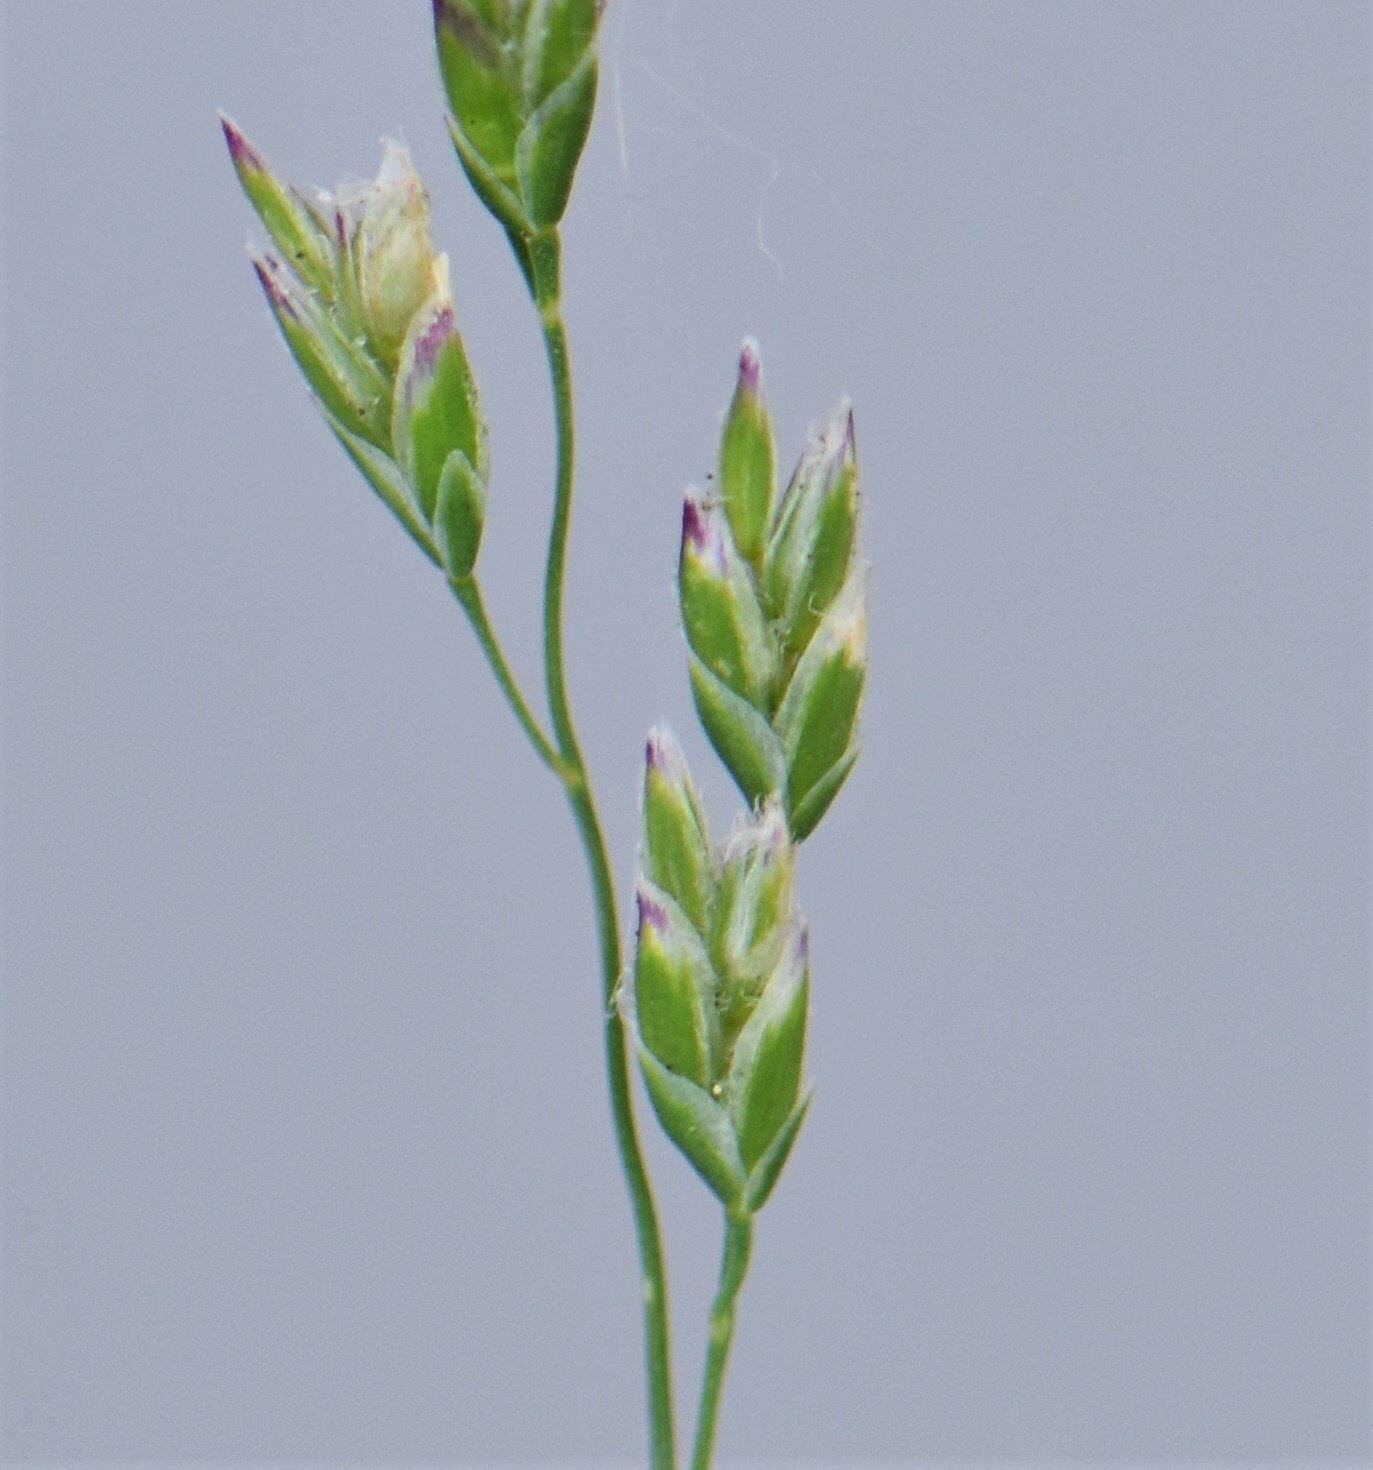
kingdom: Plantae
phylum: Tracheophyta
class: Liliopsida
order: Poales
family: Poaceae
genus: Poa
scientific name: Poa annua
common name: Annual bluegrass
